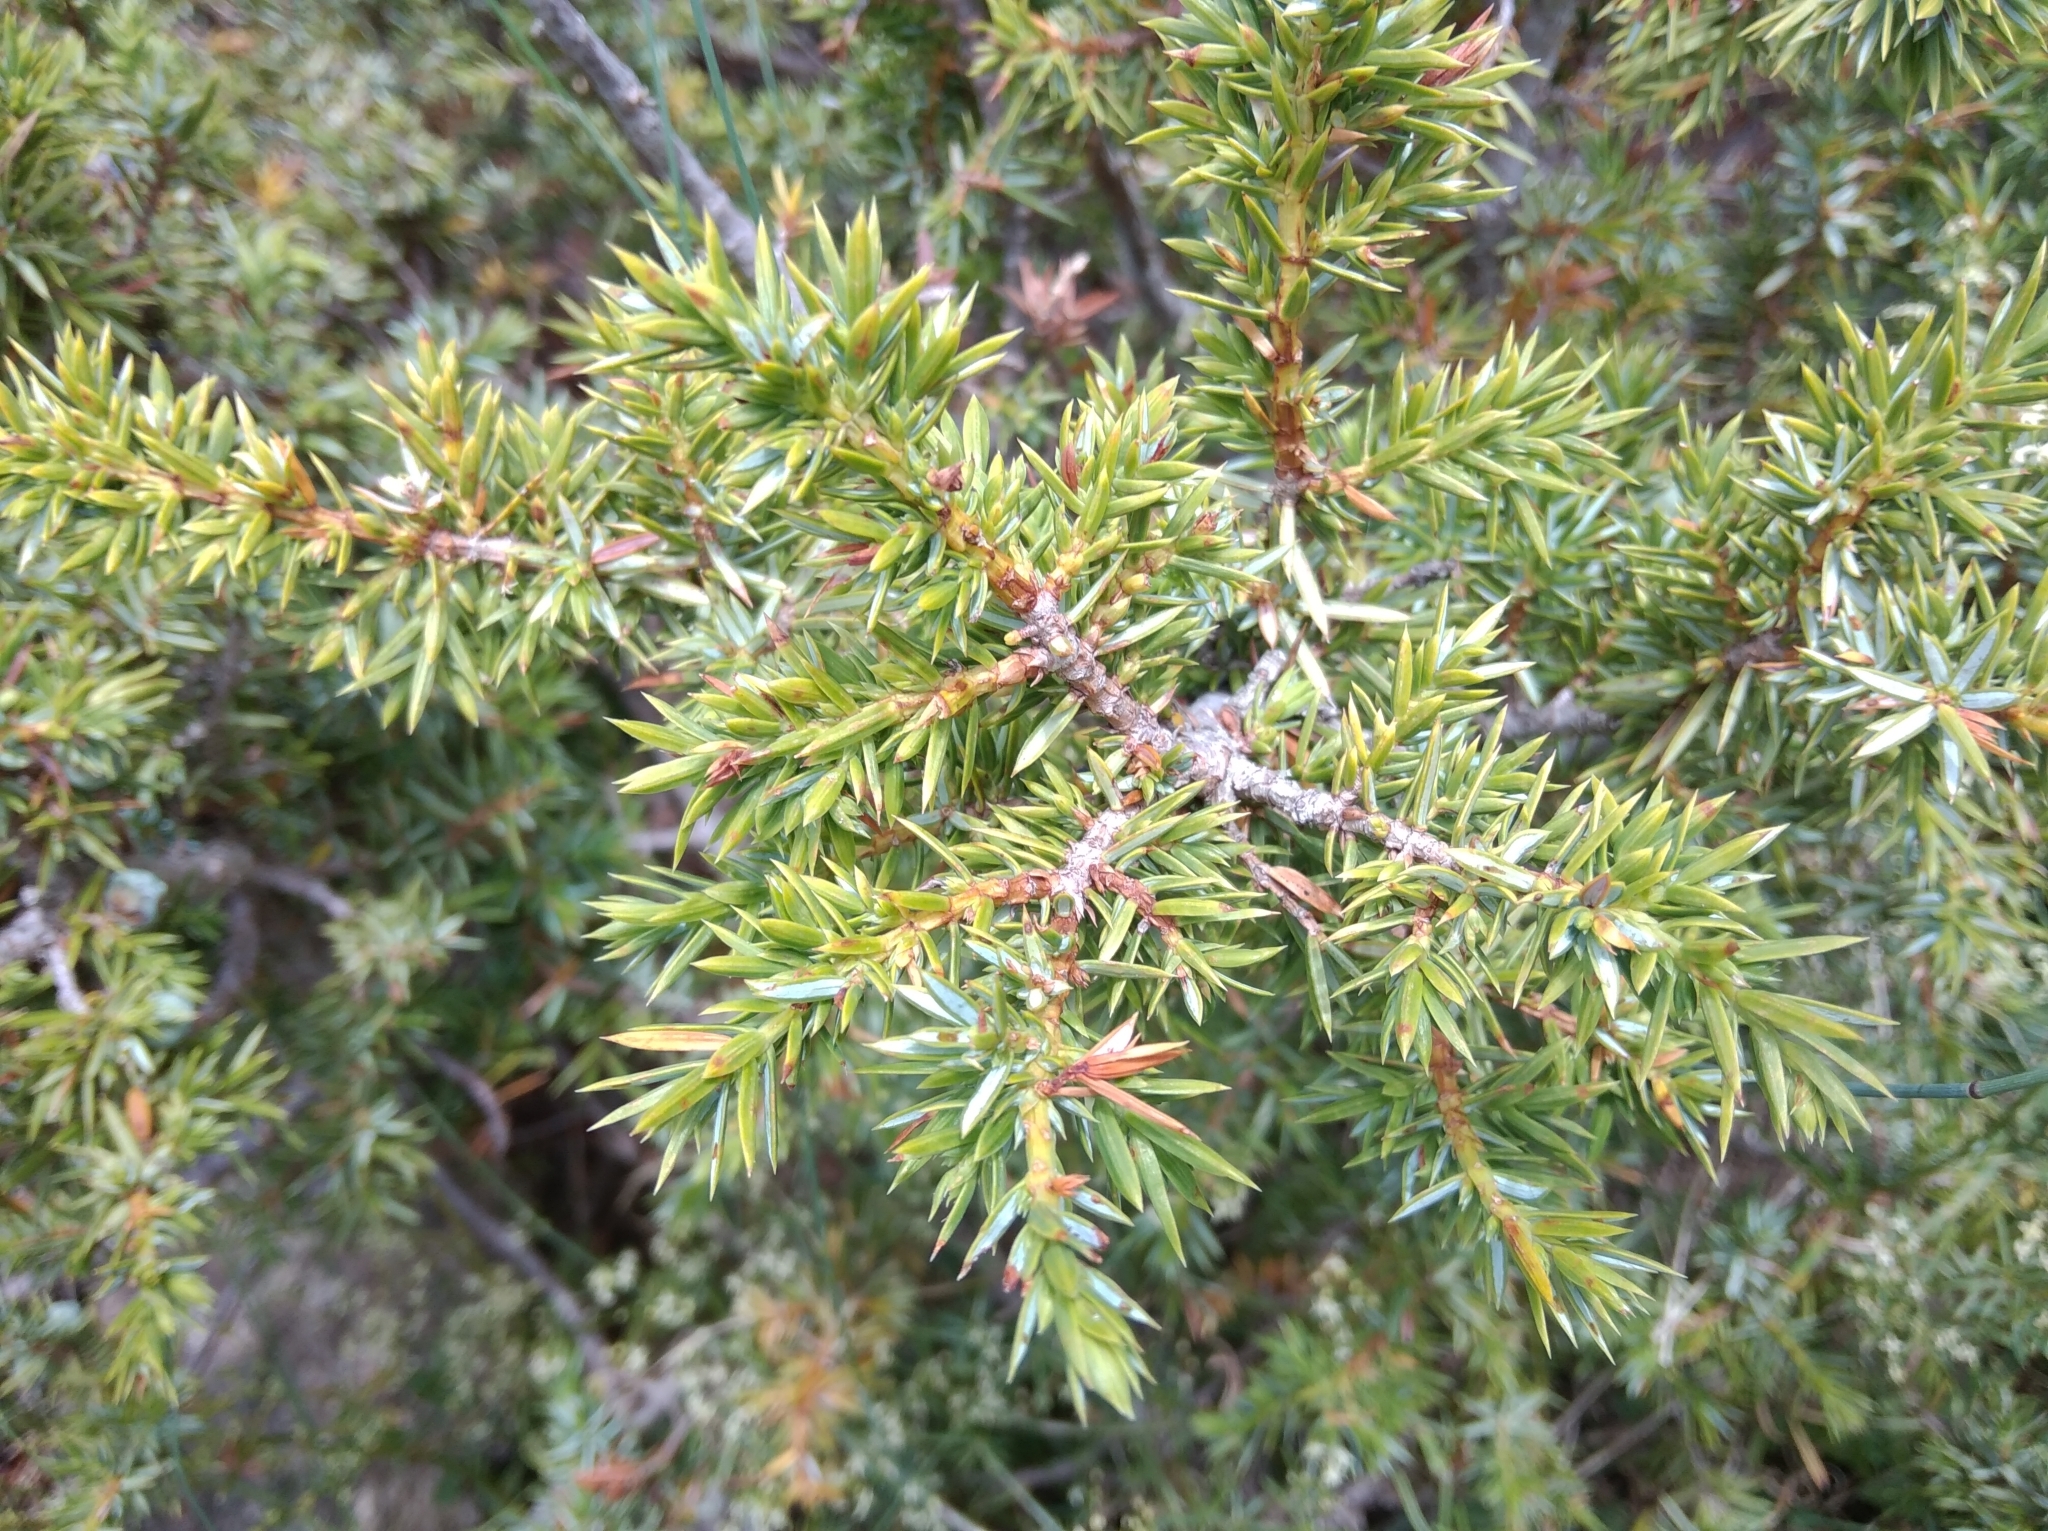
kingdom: Plantae
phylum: Tracheophyta
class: Pinopsida
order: Pinales
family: Cupressaceae
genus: Juniperus
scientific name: Juniperus communis
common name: Common juniper
